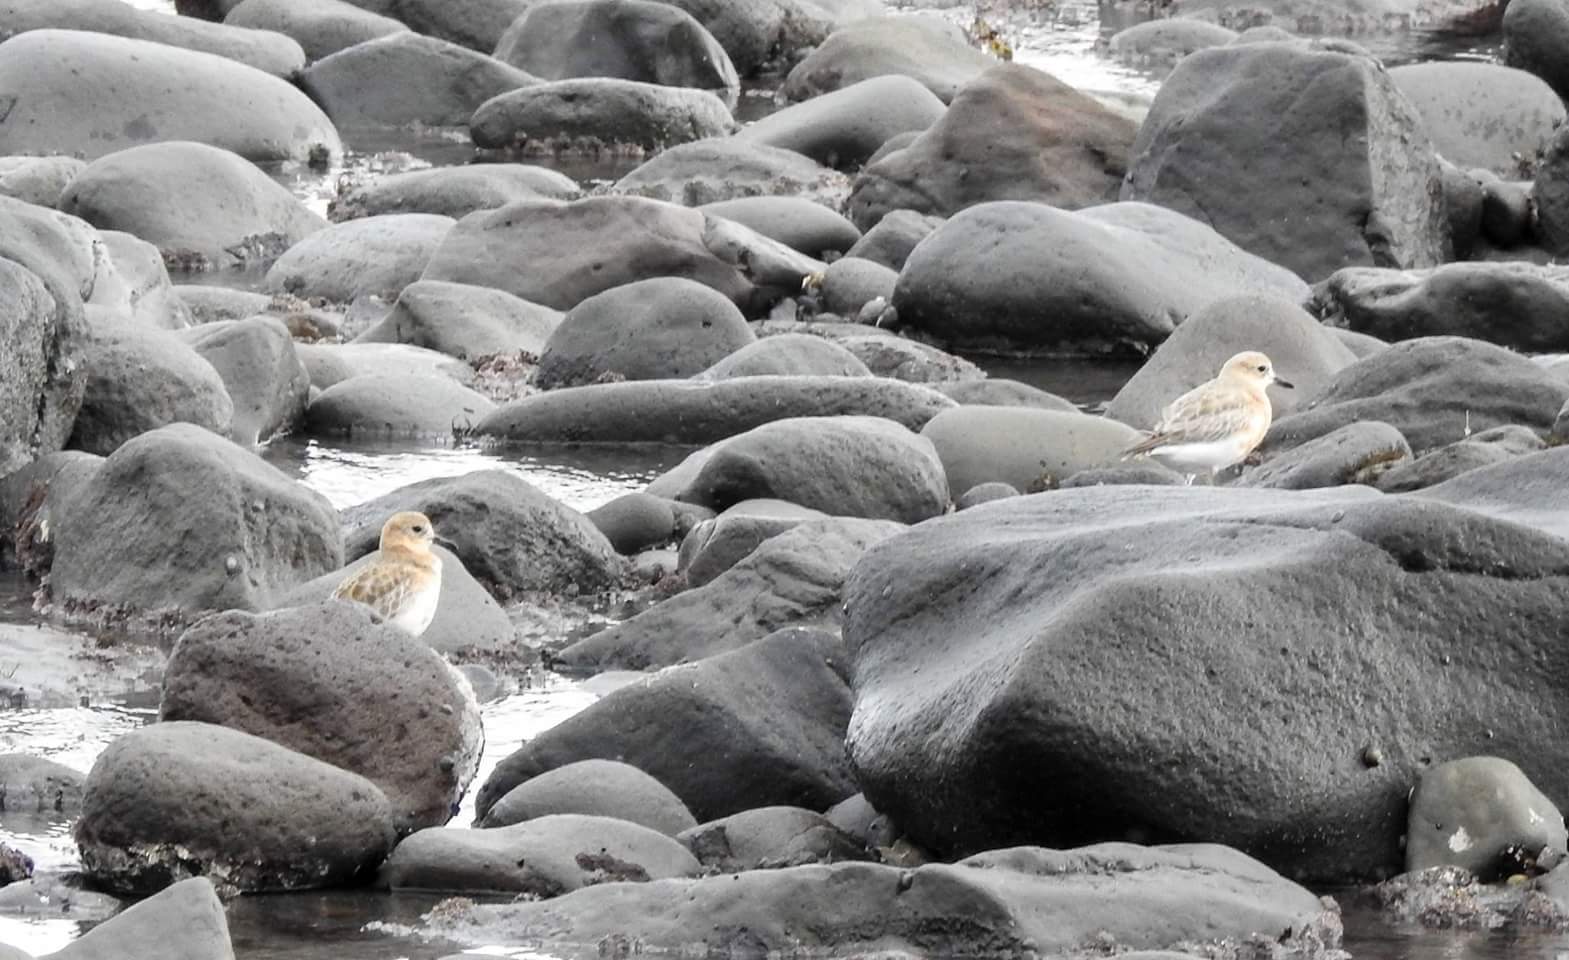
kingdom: Animalia
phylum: Chordata
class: Aves
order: Charadriiformes
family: Charadriidae
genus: Anarhynchus
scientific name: Anarhynchus
